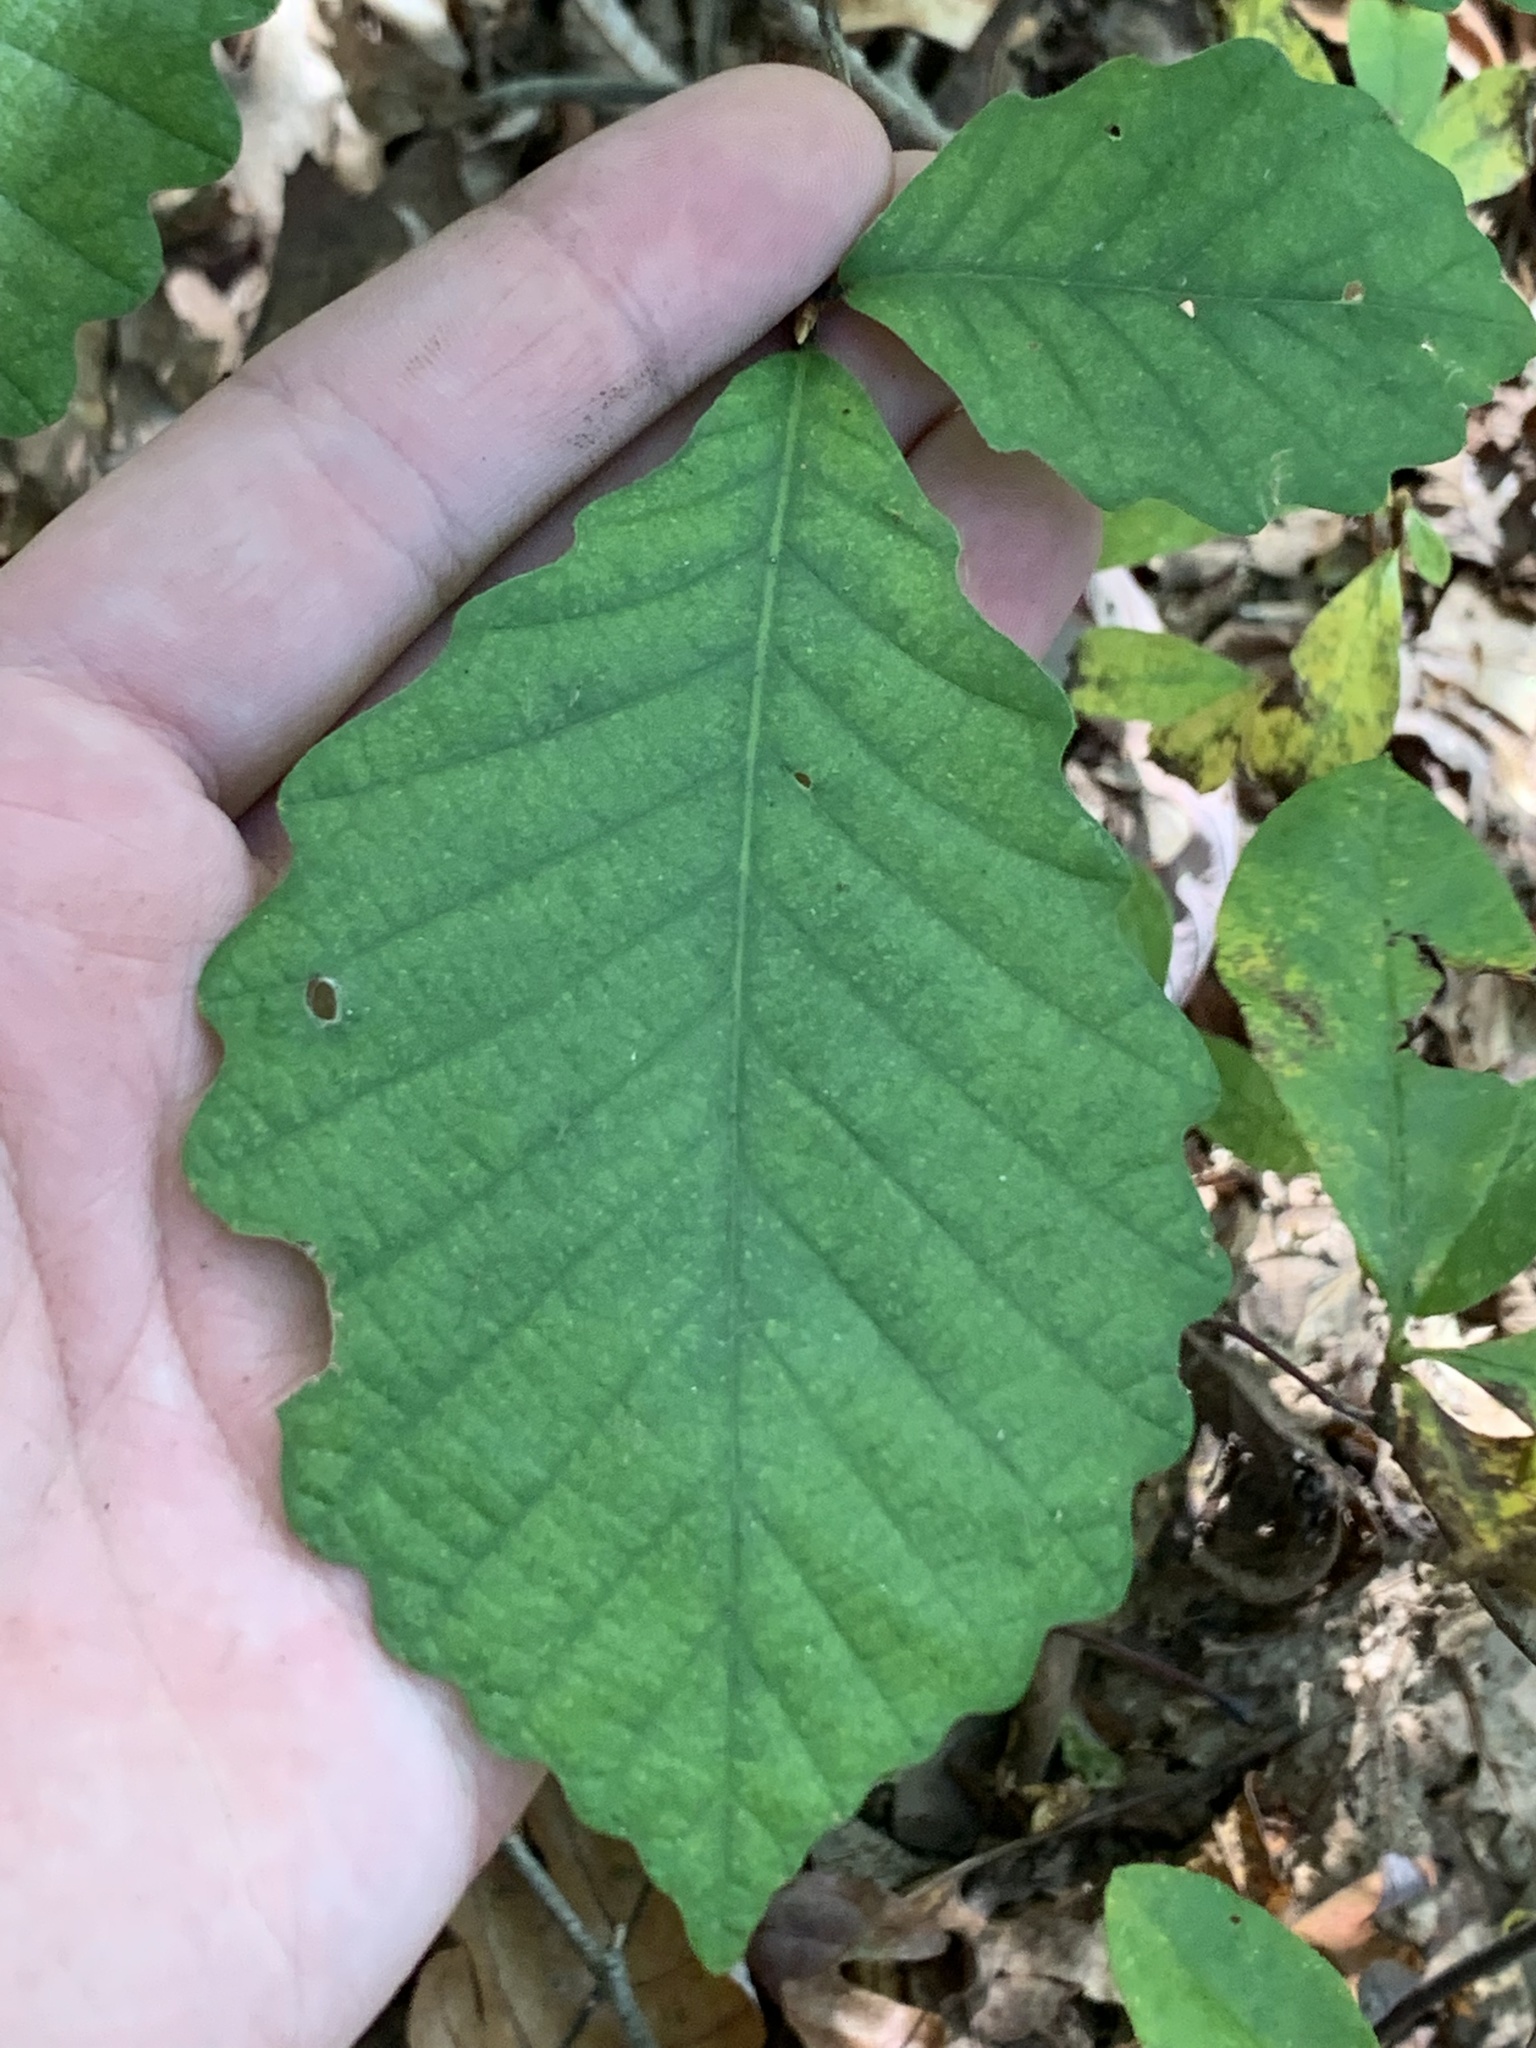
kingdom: Plantae
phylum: Tracheophyta
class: Magnoliopsida
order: Fagales
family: Fagaceae
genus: Quercus
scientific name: Quercus michauxii
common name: Swamp chestnut oak
